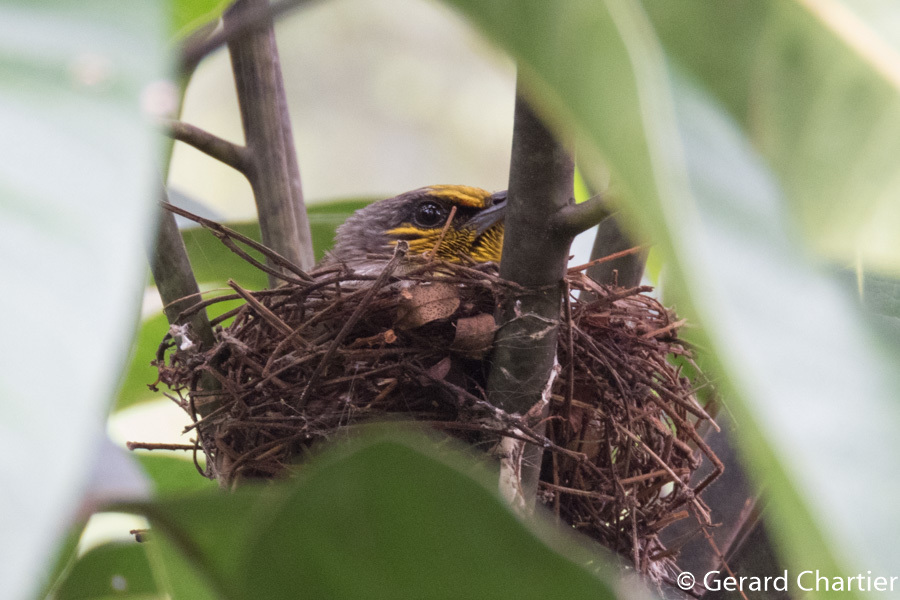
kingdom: Animalia
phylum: Chordata
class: Aves
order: Passeriformes
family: Pycnonotidae
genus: Pycnonotus
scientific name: Pycnonotus finlaysoni
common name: Stripe-throated bulbul
